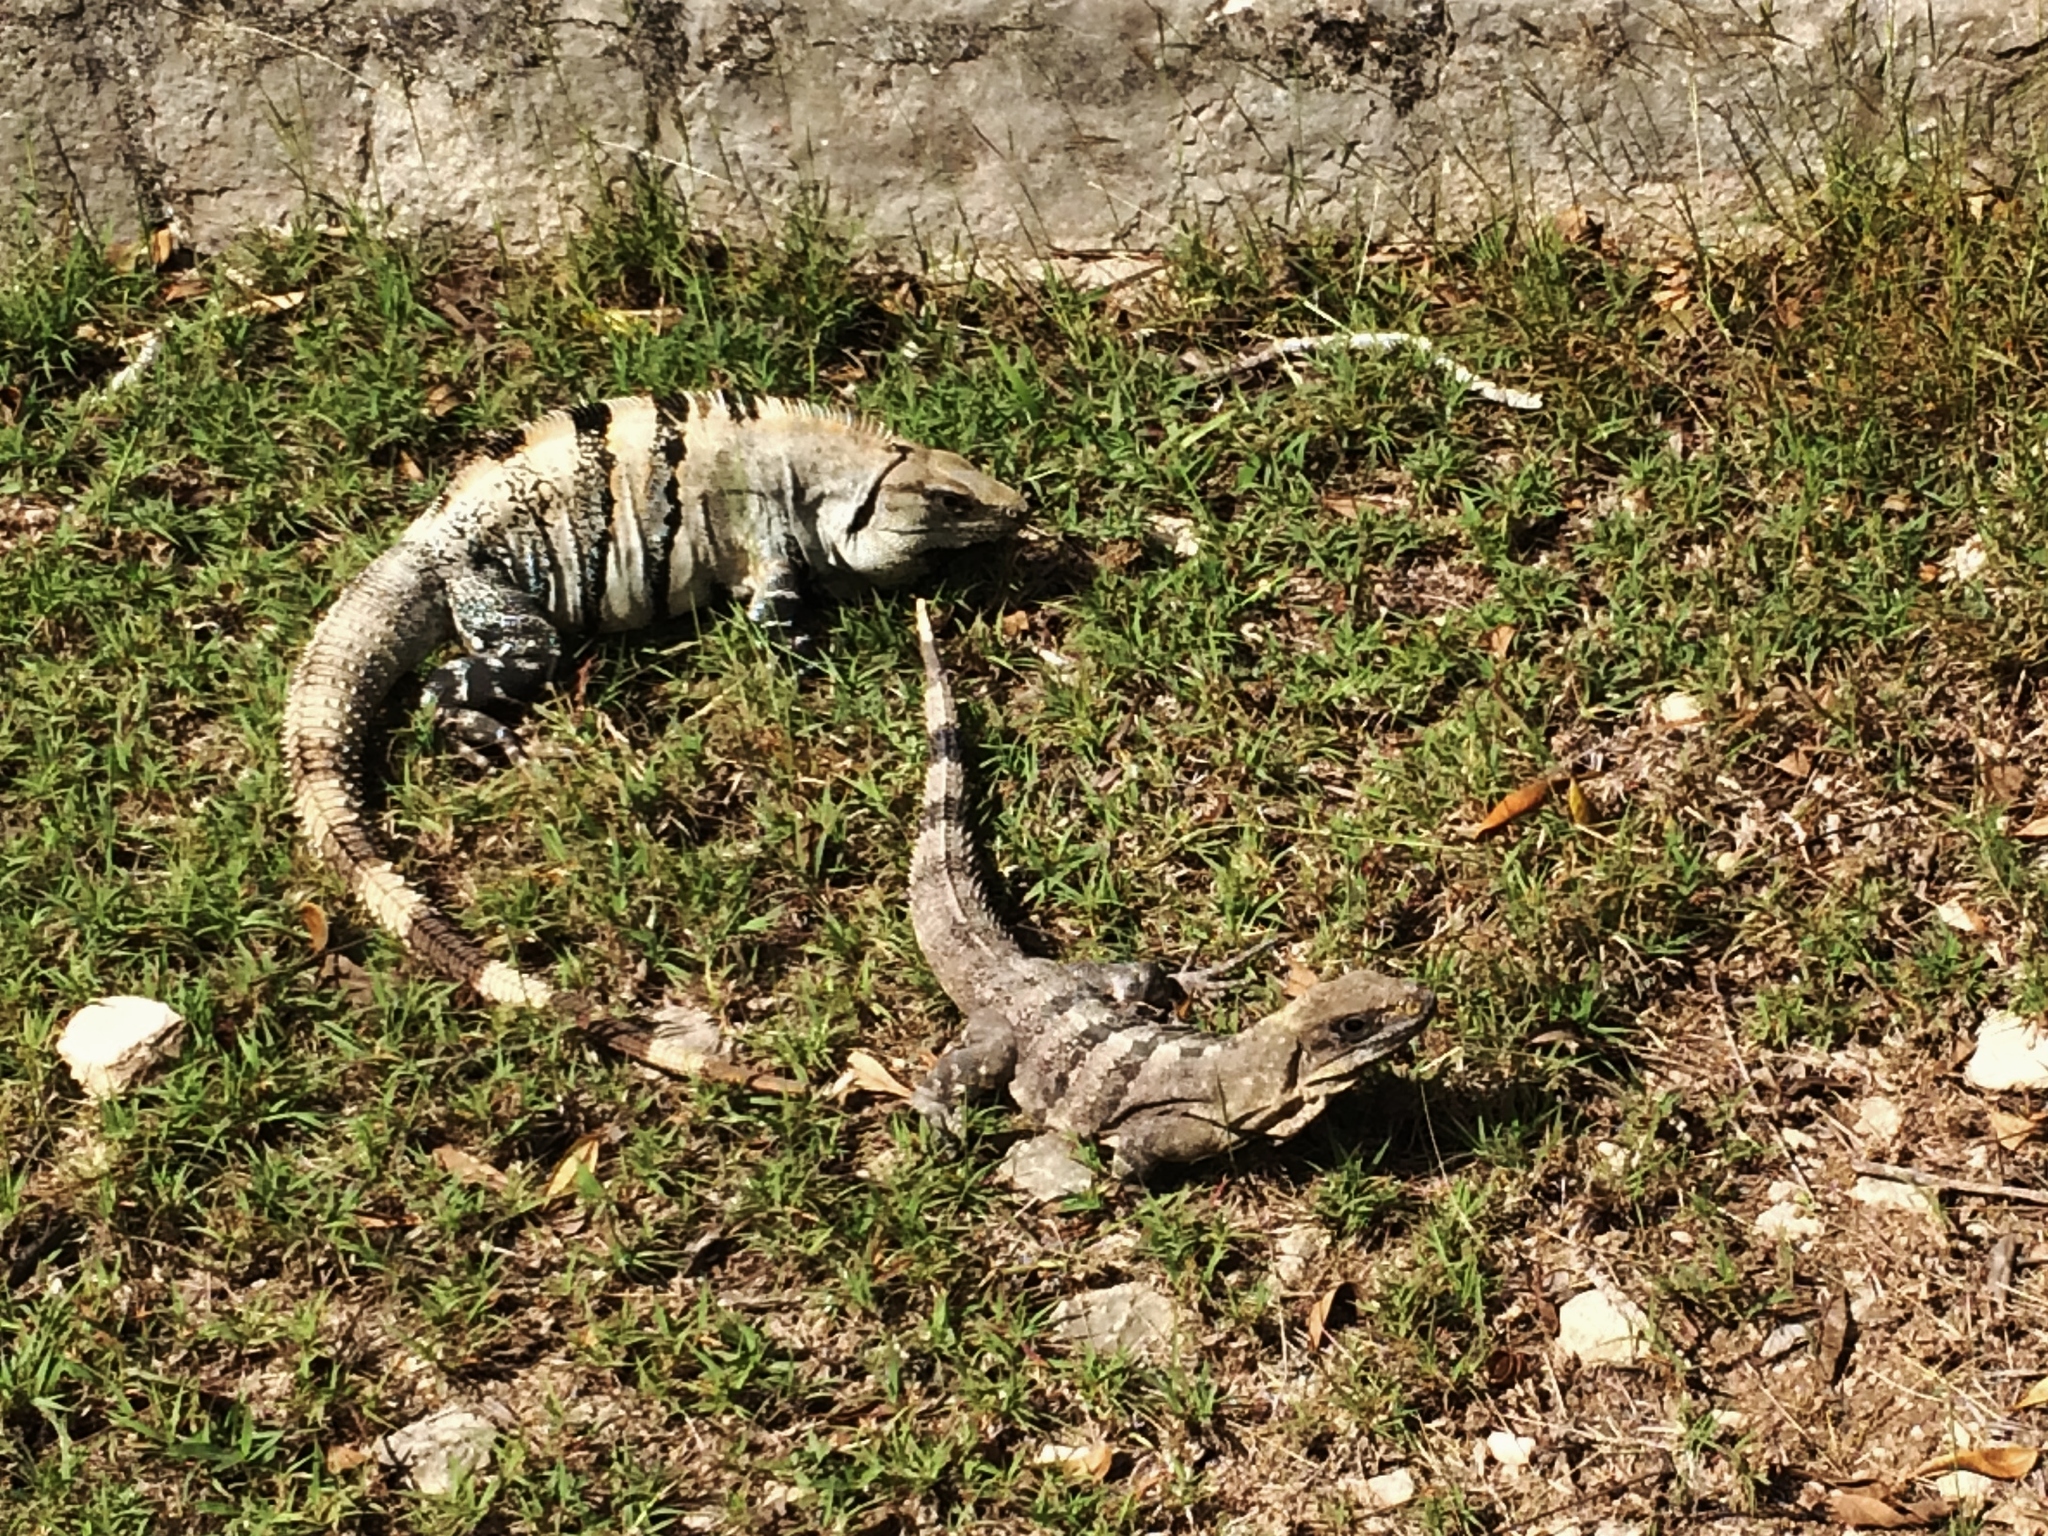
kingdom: Animalia
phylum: Chordata
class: Squamata
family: Iguanidae
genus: Ctenosaura
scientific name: Ctenosaura similis
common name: Black spiny-tailed iguana
